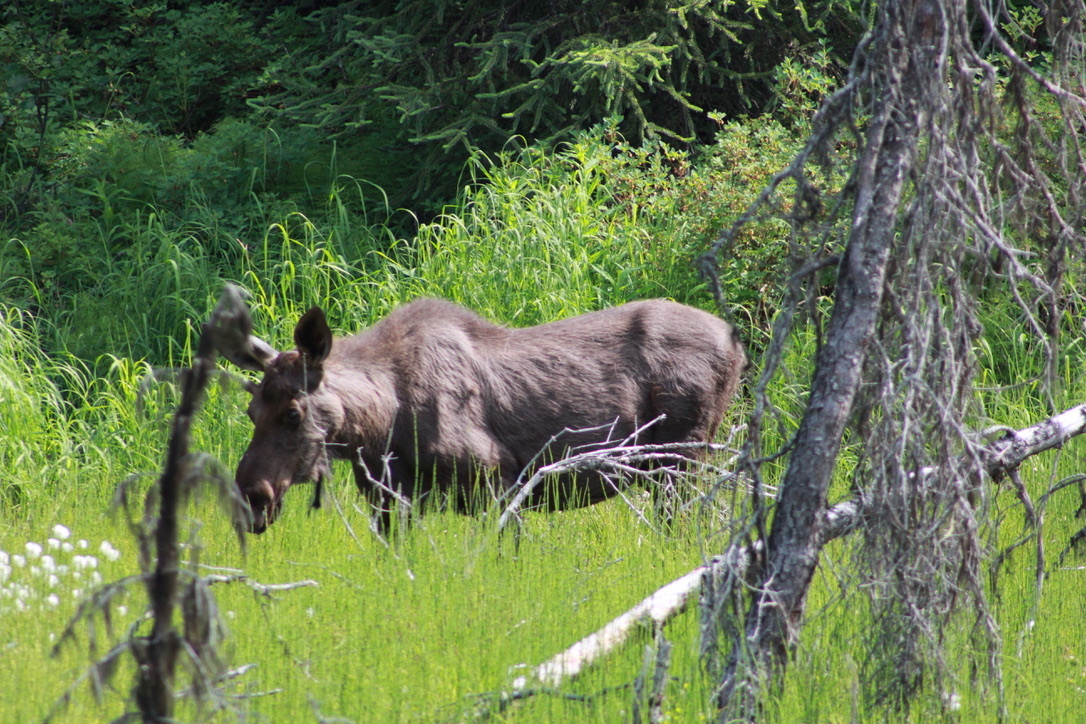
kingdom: Animalia
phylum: Chordata
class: Mammalia
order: Artiodactyla
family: Cervidae
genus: Alces
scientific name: Alces alces
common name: Moose
